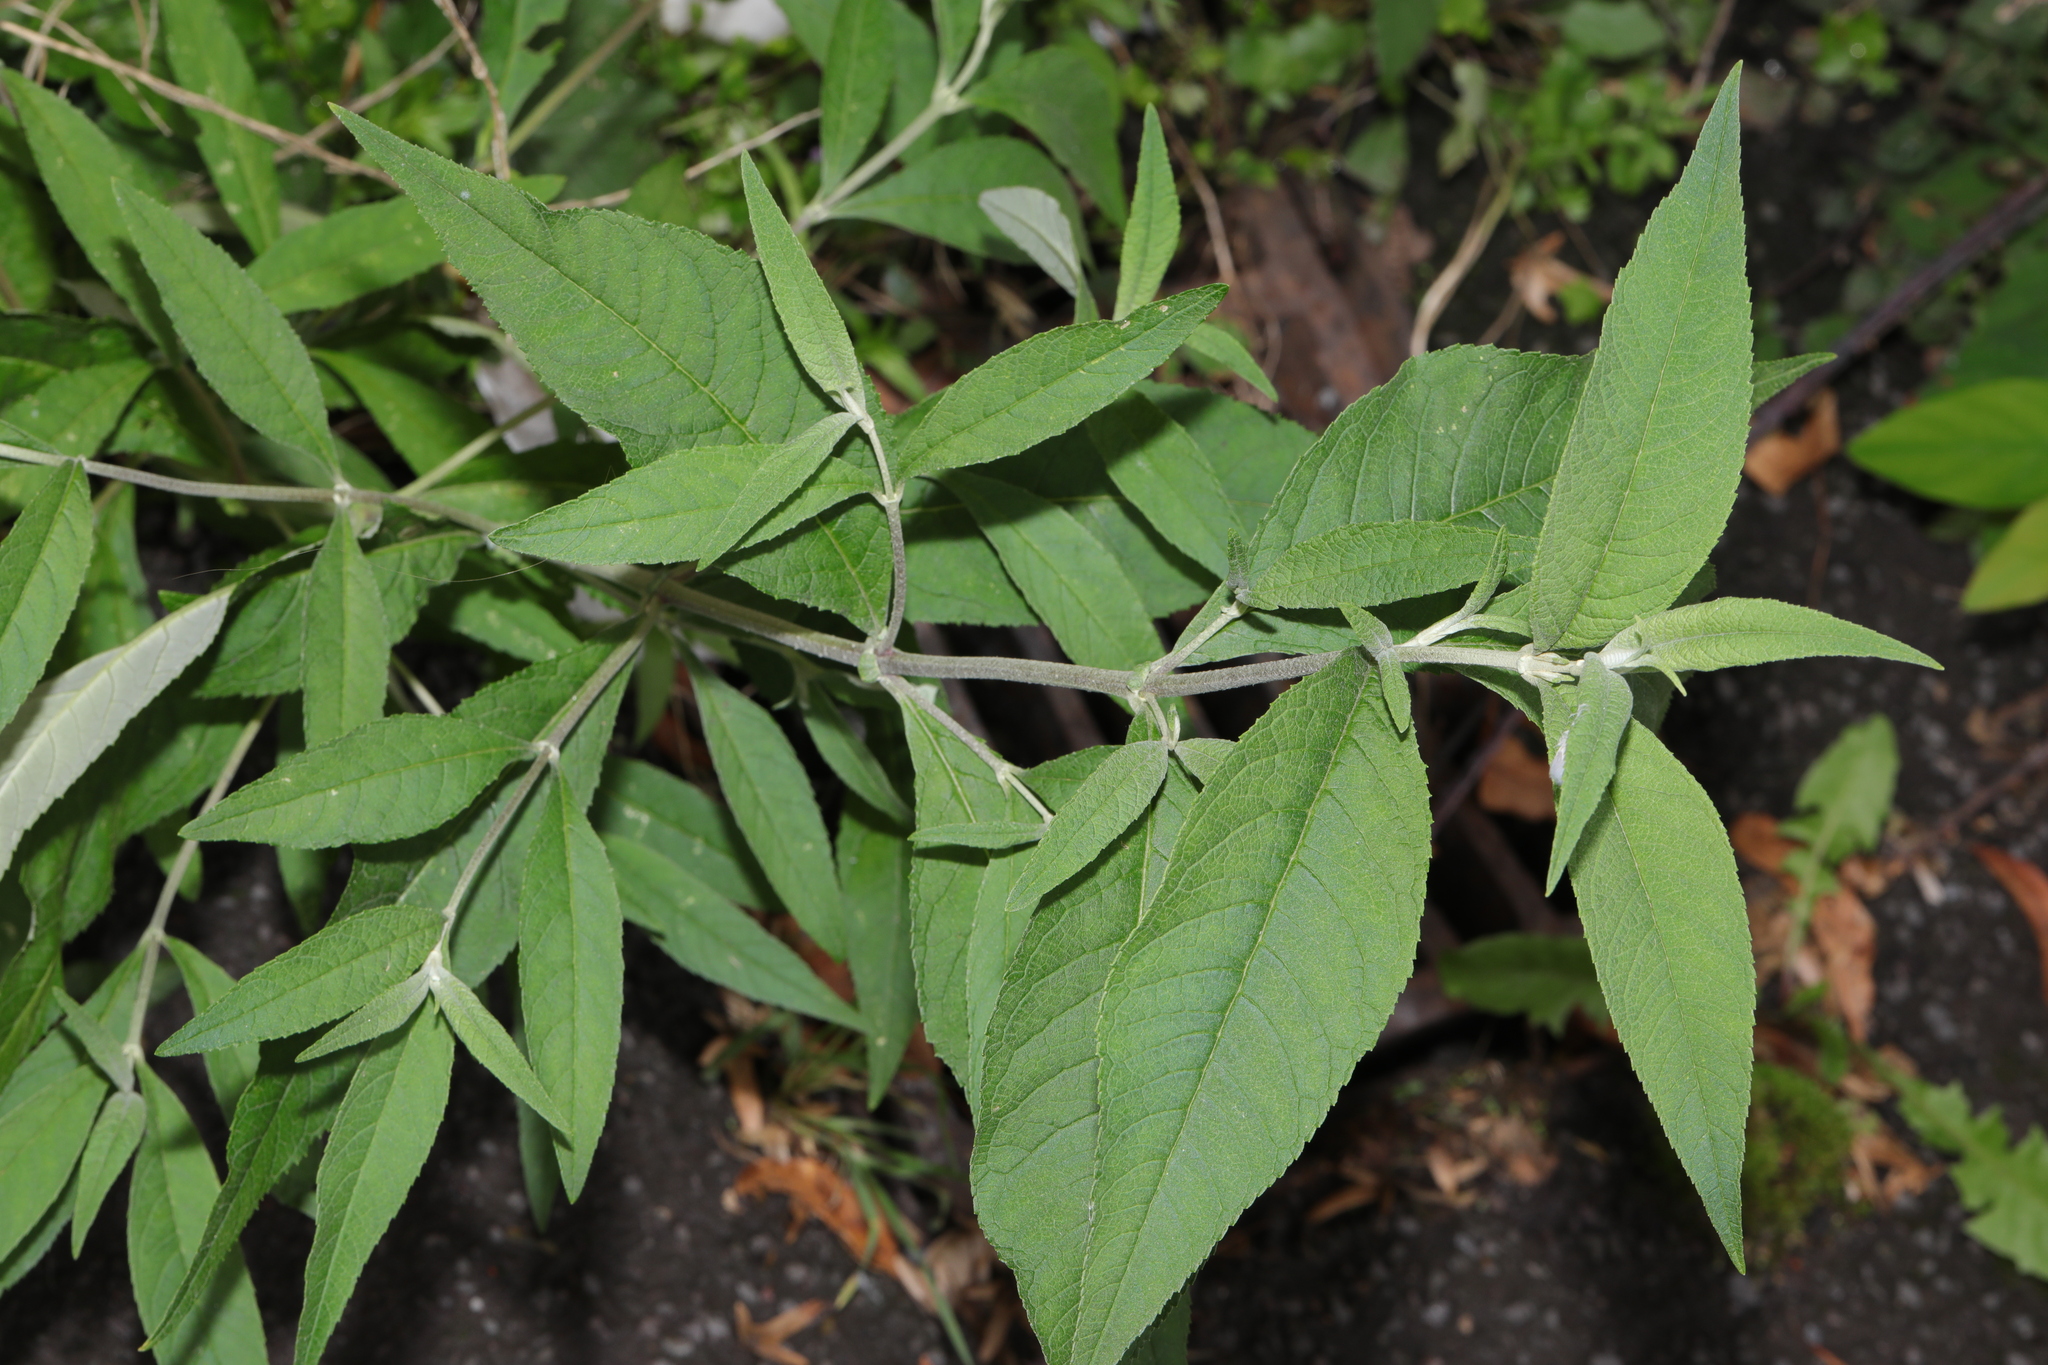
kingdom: Plantae
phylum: Tracheophyta
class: Magnoliopsida
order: Lamiales
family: Scrophulariaceae
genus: Buddleja
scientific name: Buddleja davidii
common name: Butterfly-bush
